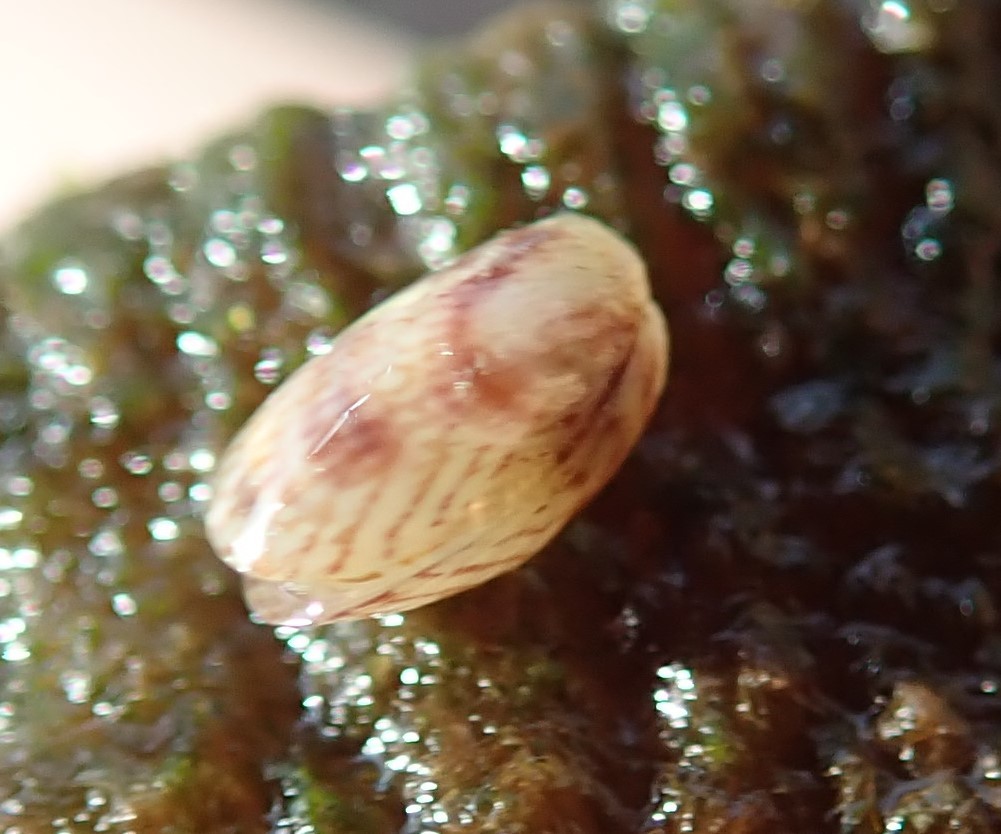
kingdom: Animalia
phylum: Mollusca
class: Bivalvia
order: Mytilida
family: Mytilidae
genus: Musculus
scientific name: Musculus impactus
